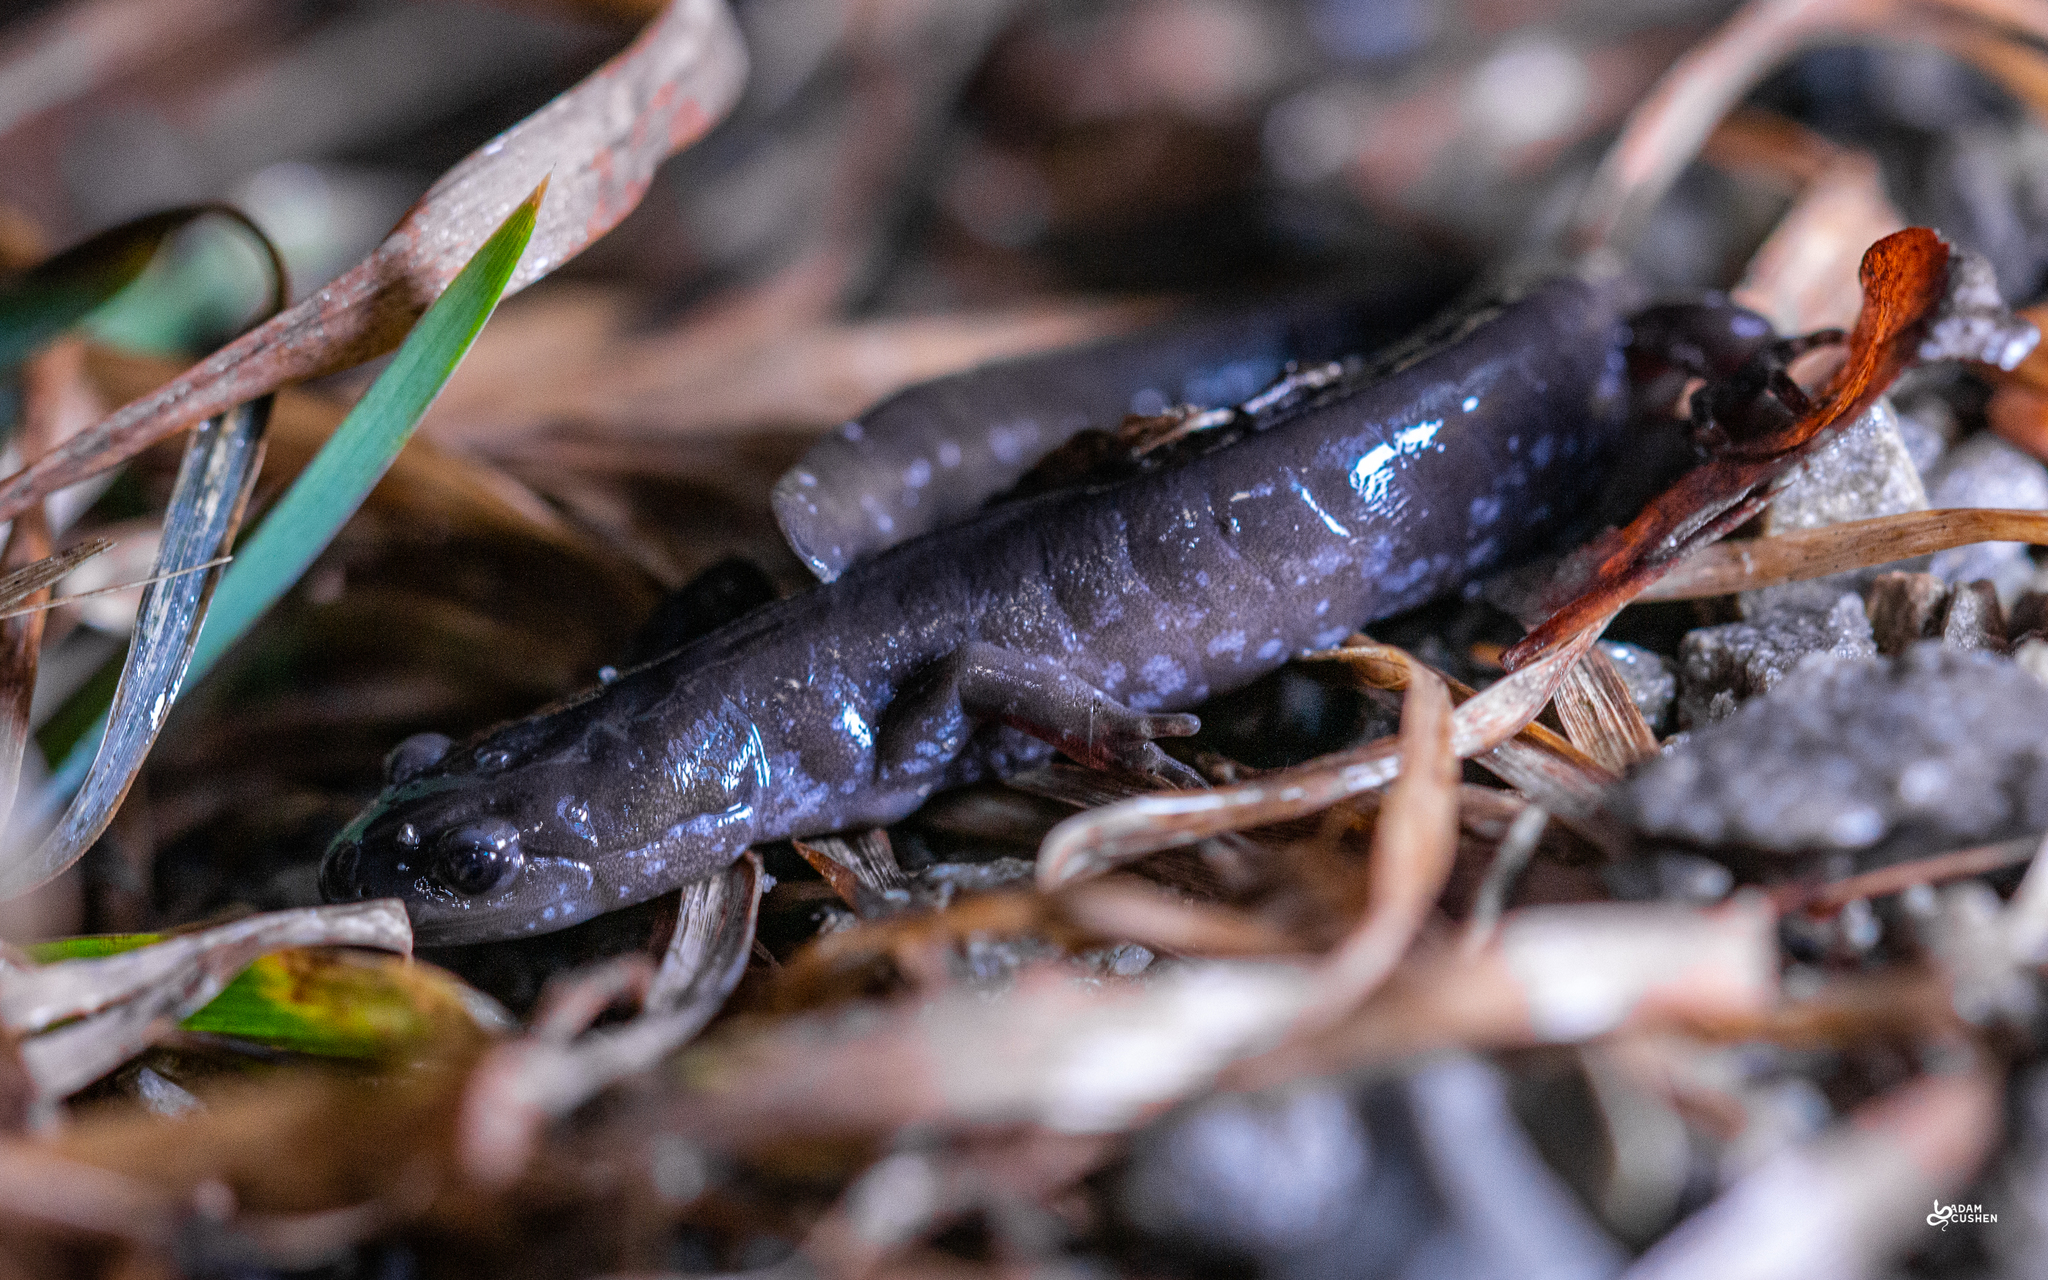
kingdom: Animalia
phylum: Chordata
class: Amphibia
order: Caudata
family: Ambystomatidae
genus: Ambystoma
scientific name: Ambystoma laterale
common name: Blue-spotted salamander
